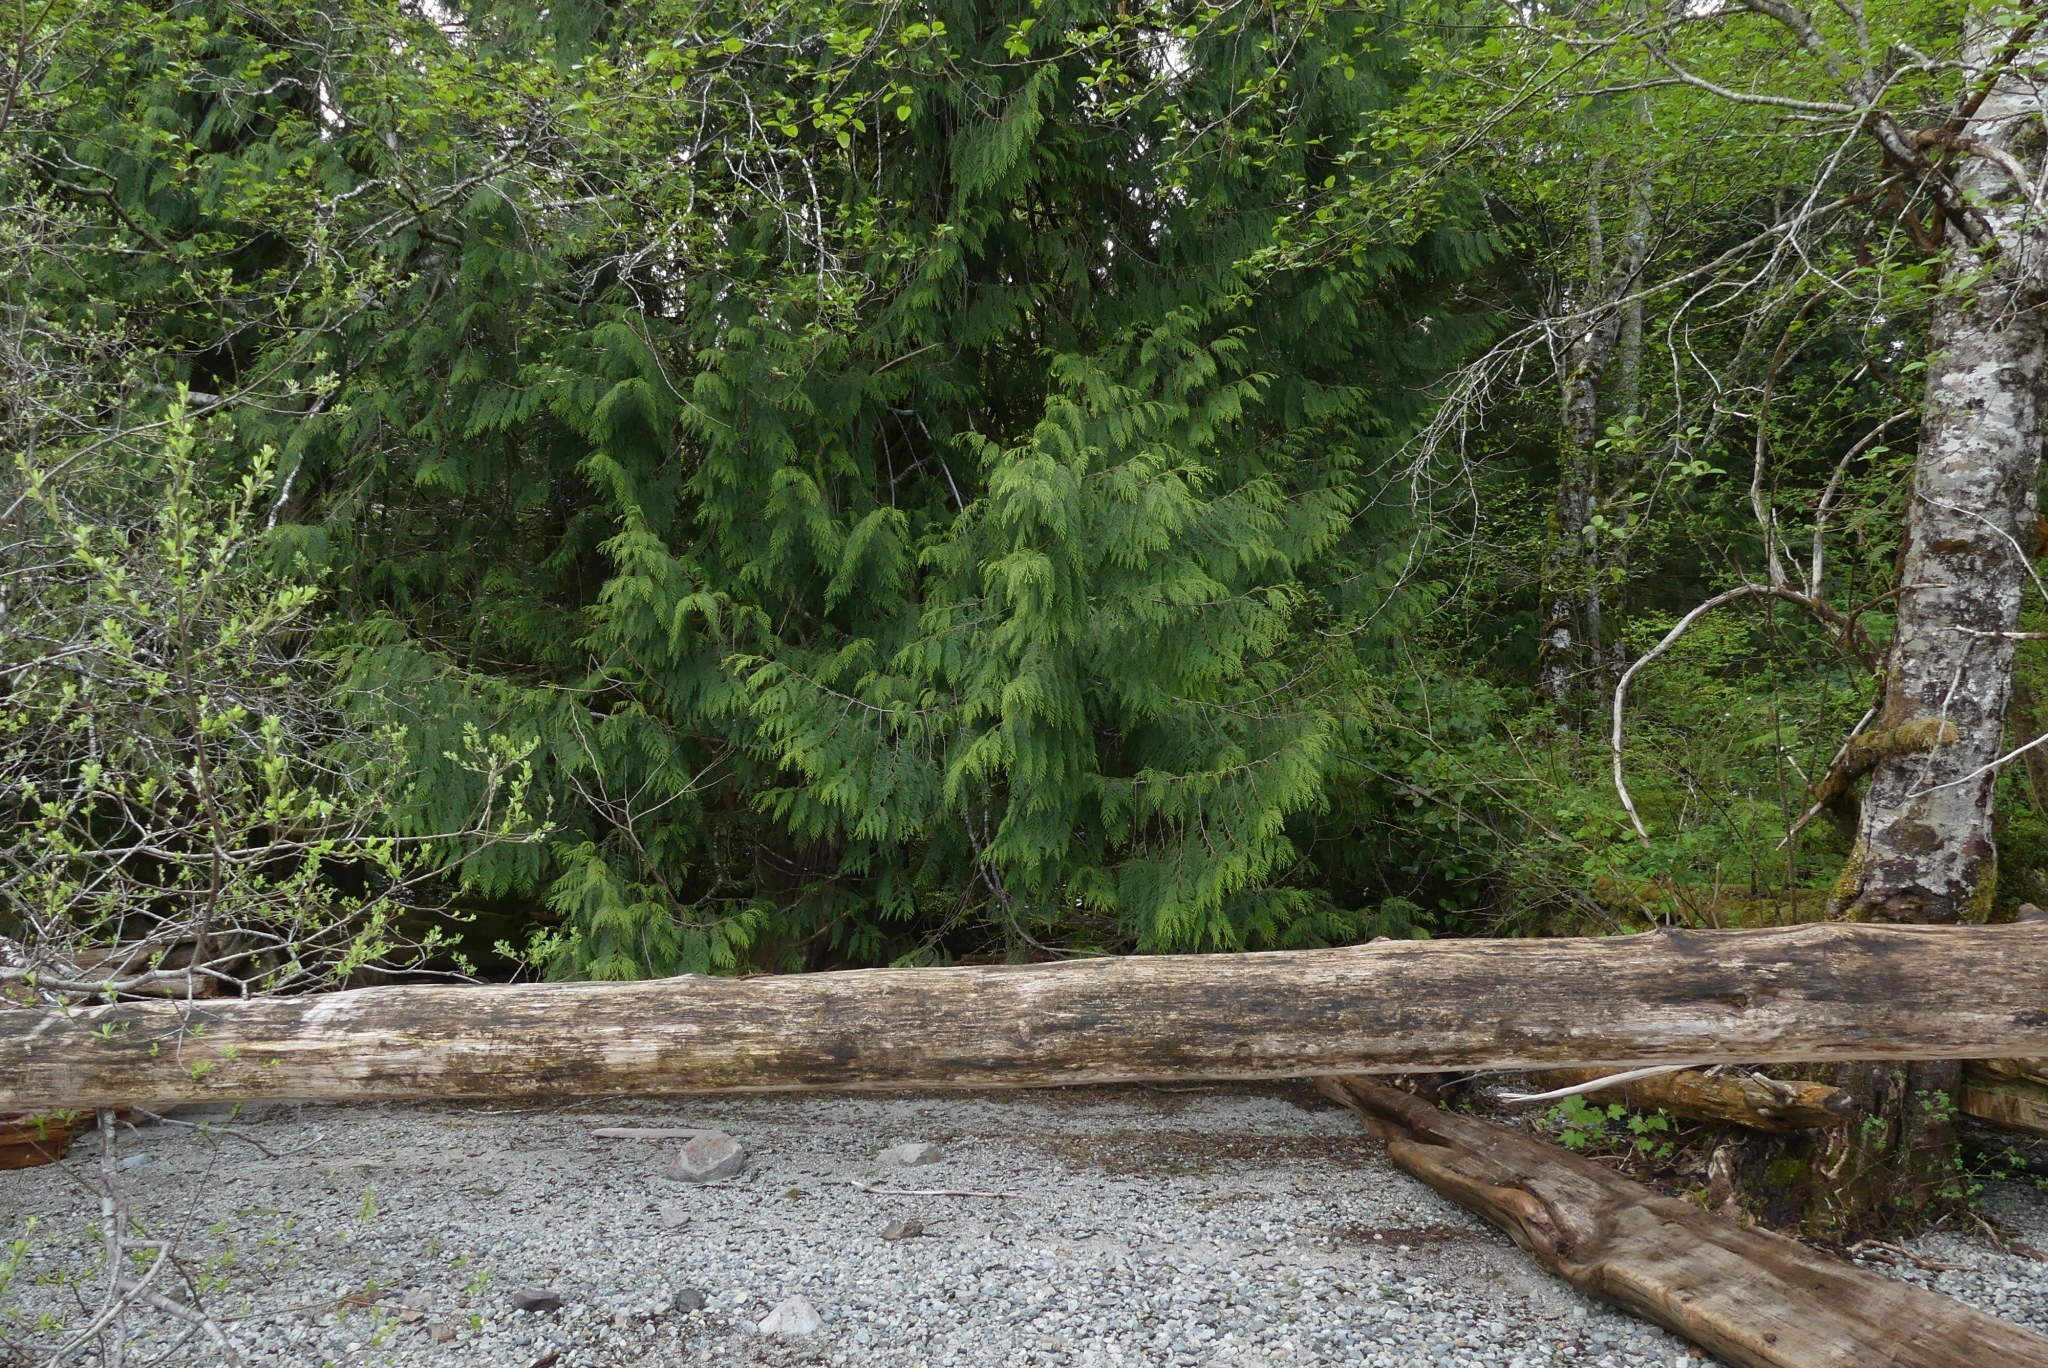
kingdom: Plantae
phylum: Tracheophyta
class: Pinopsida
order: Pinales
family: Cupressaceae
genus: Thuja
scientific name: Thuja plicata
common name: Western red-cedar
